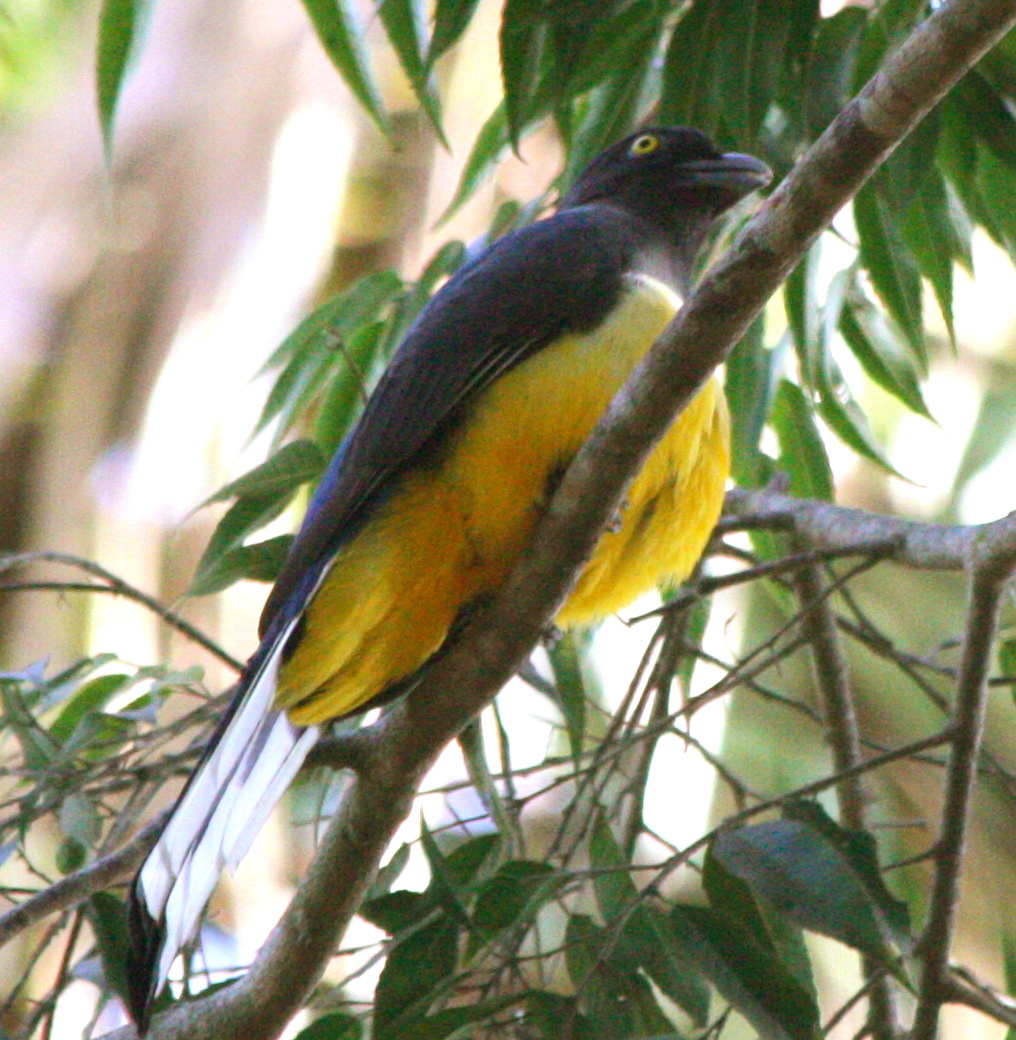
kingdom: Animalia
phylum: Chordata
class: Aves
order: Trogoniformes
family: Trogonidae
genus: Trogon
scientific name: Trogon citreolus
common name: Citreoline trogon
